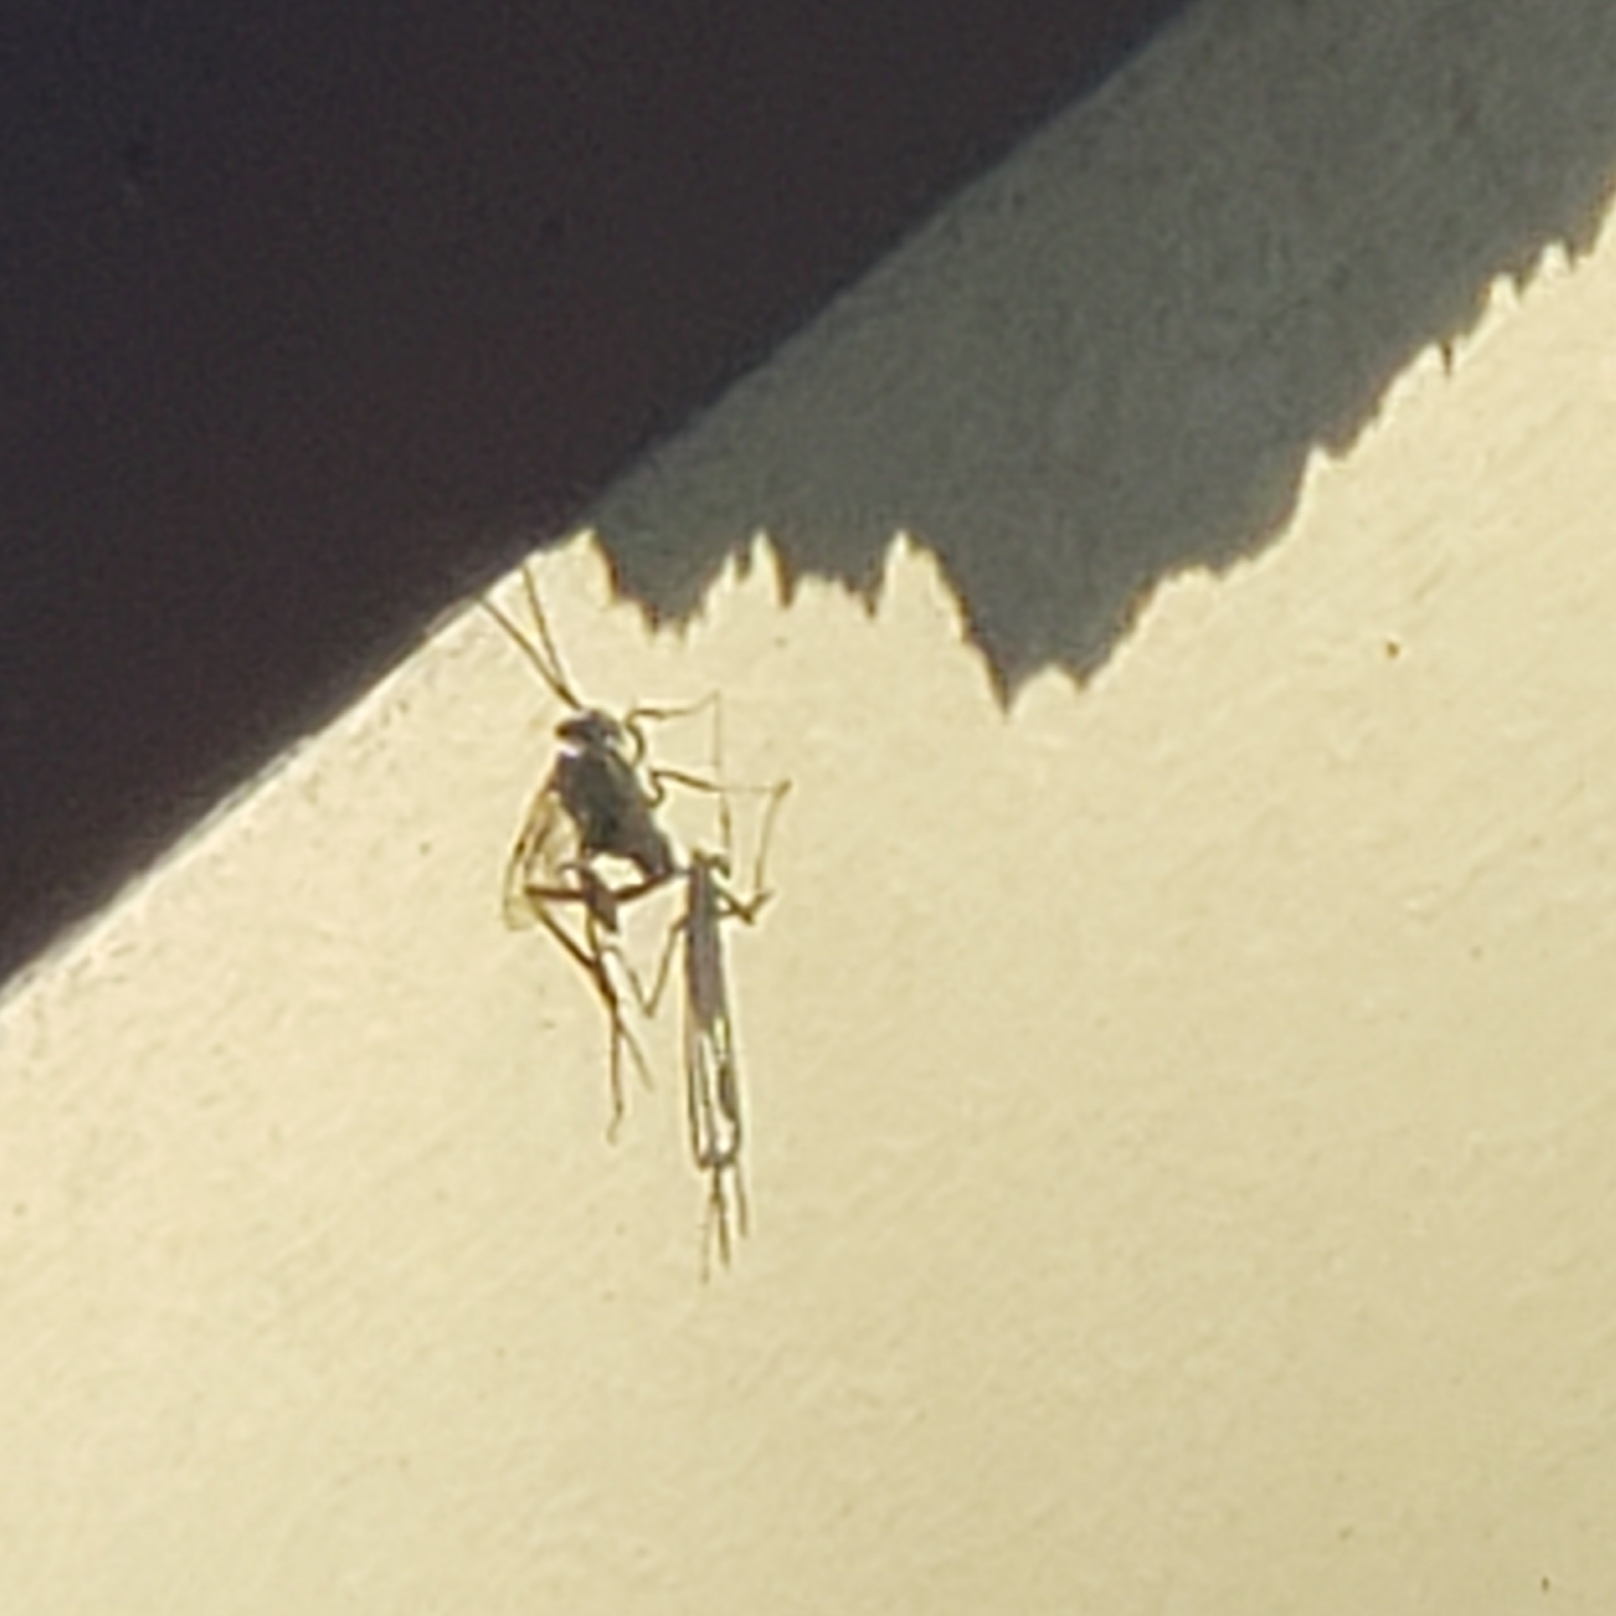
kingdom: Animalia
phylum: Arthropoda
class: Insecta
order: Hymenoptera
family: Evaniidae
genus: Evania
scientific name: Evania appendigaster
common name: Ensign wasp
